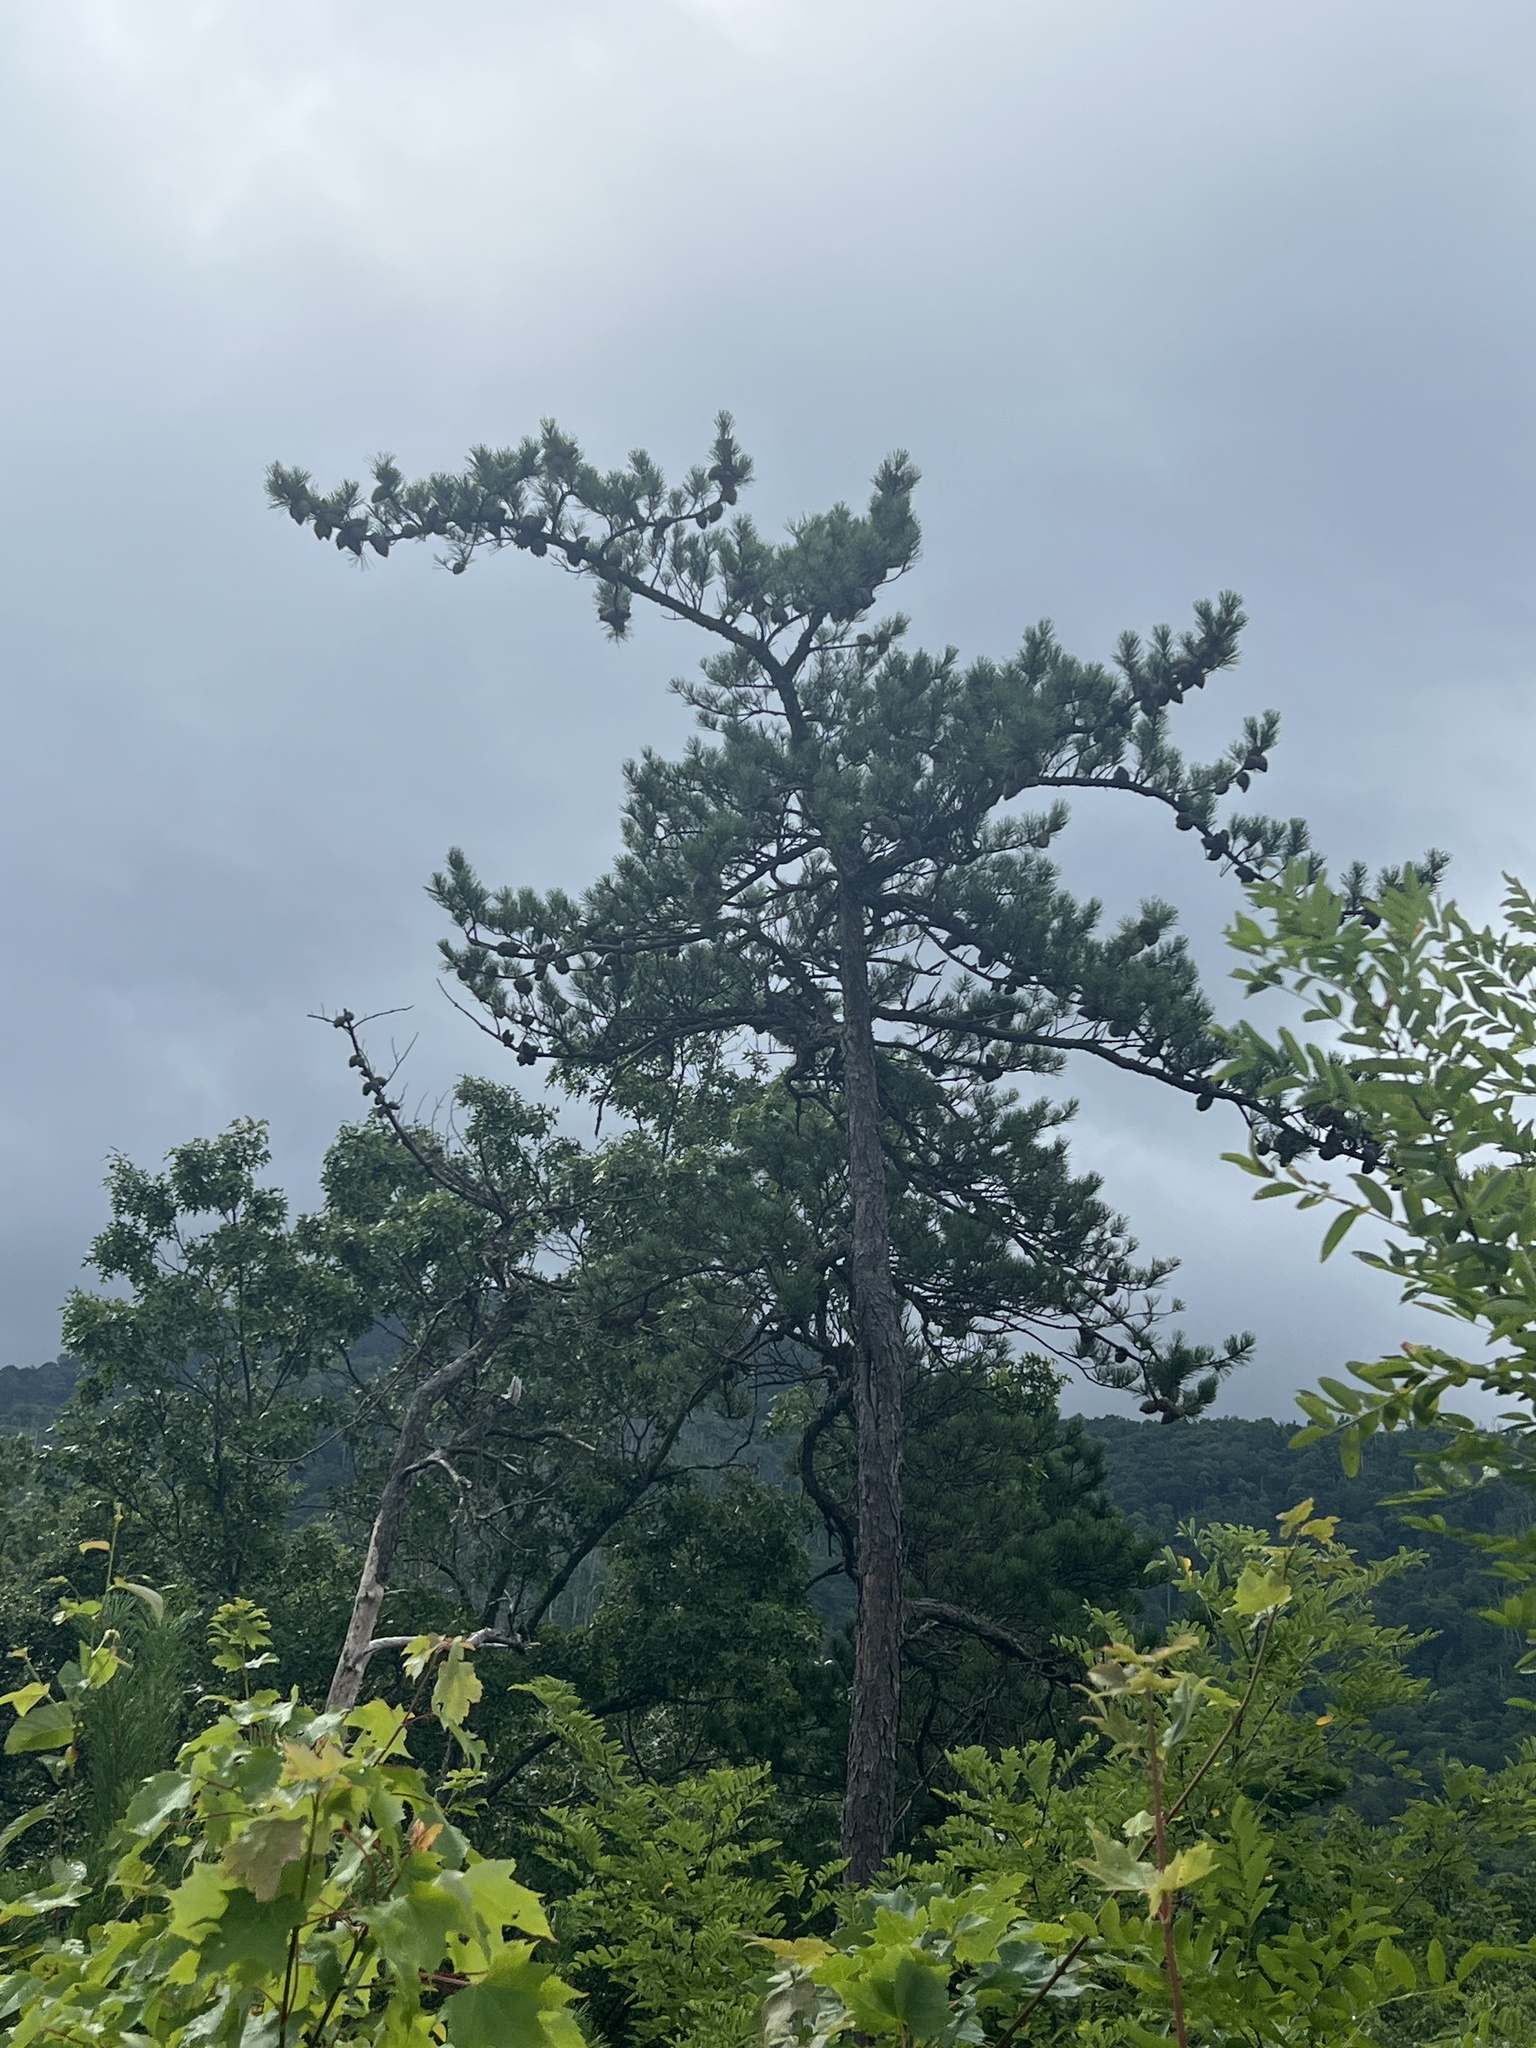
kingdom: Plantae
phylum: Tracheophyta
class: Pinopsida
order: Pinales
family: Pinaceae
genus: Pinus
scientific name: Pinus pungens
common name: Hickory pine
